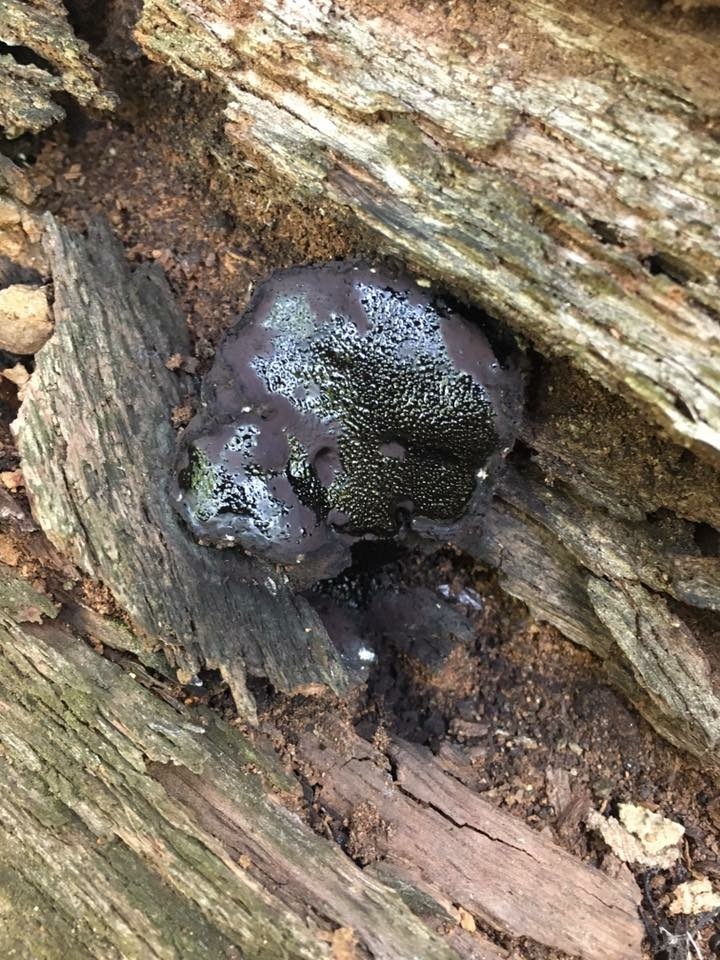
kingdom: Fungi
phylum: Ascomycota
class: Sordariomycetes
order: Boliniales
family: Boliniaceae
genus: Camarops
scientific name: Camarops petersii
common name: Dog's nose fungus
